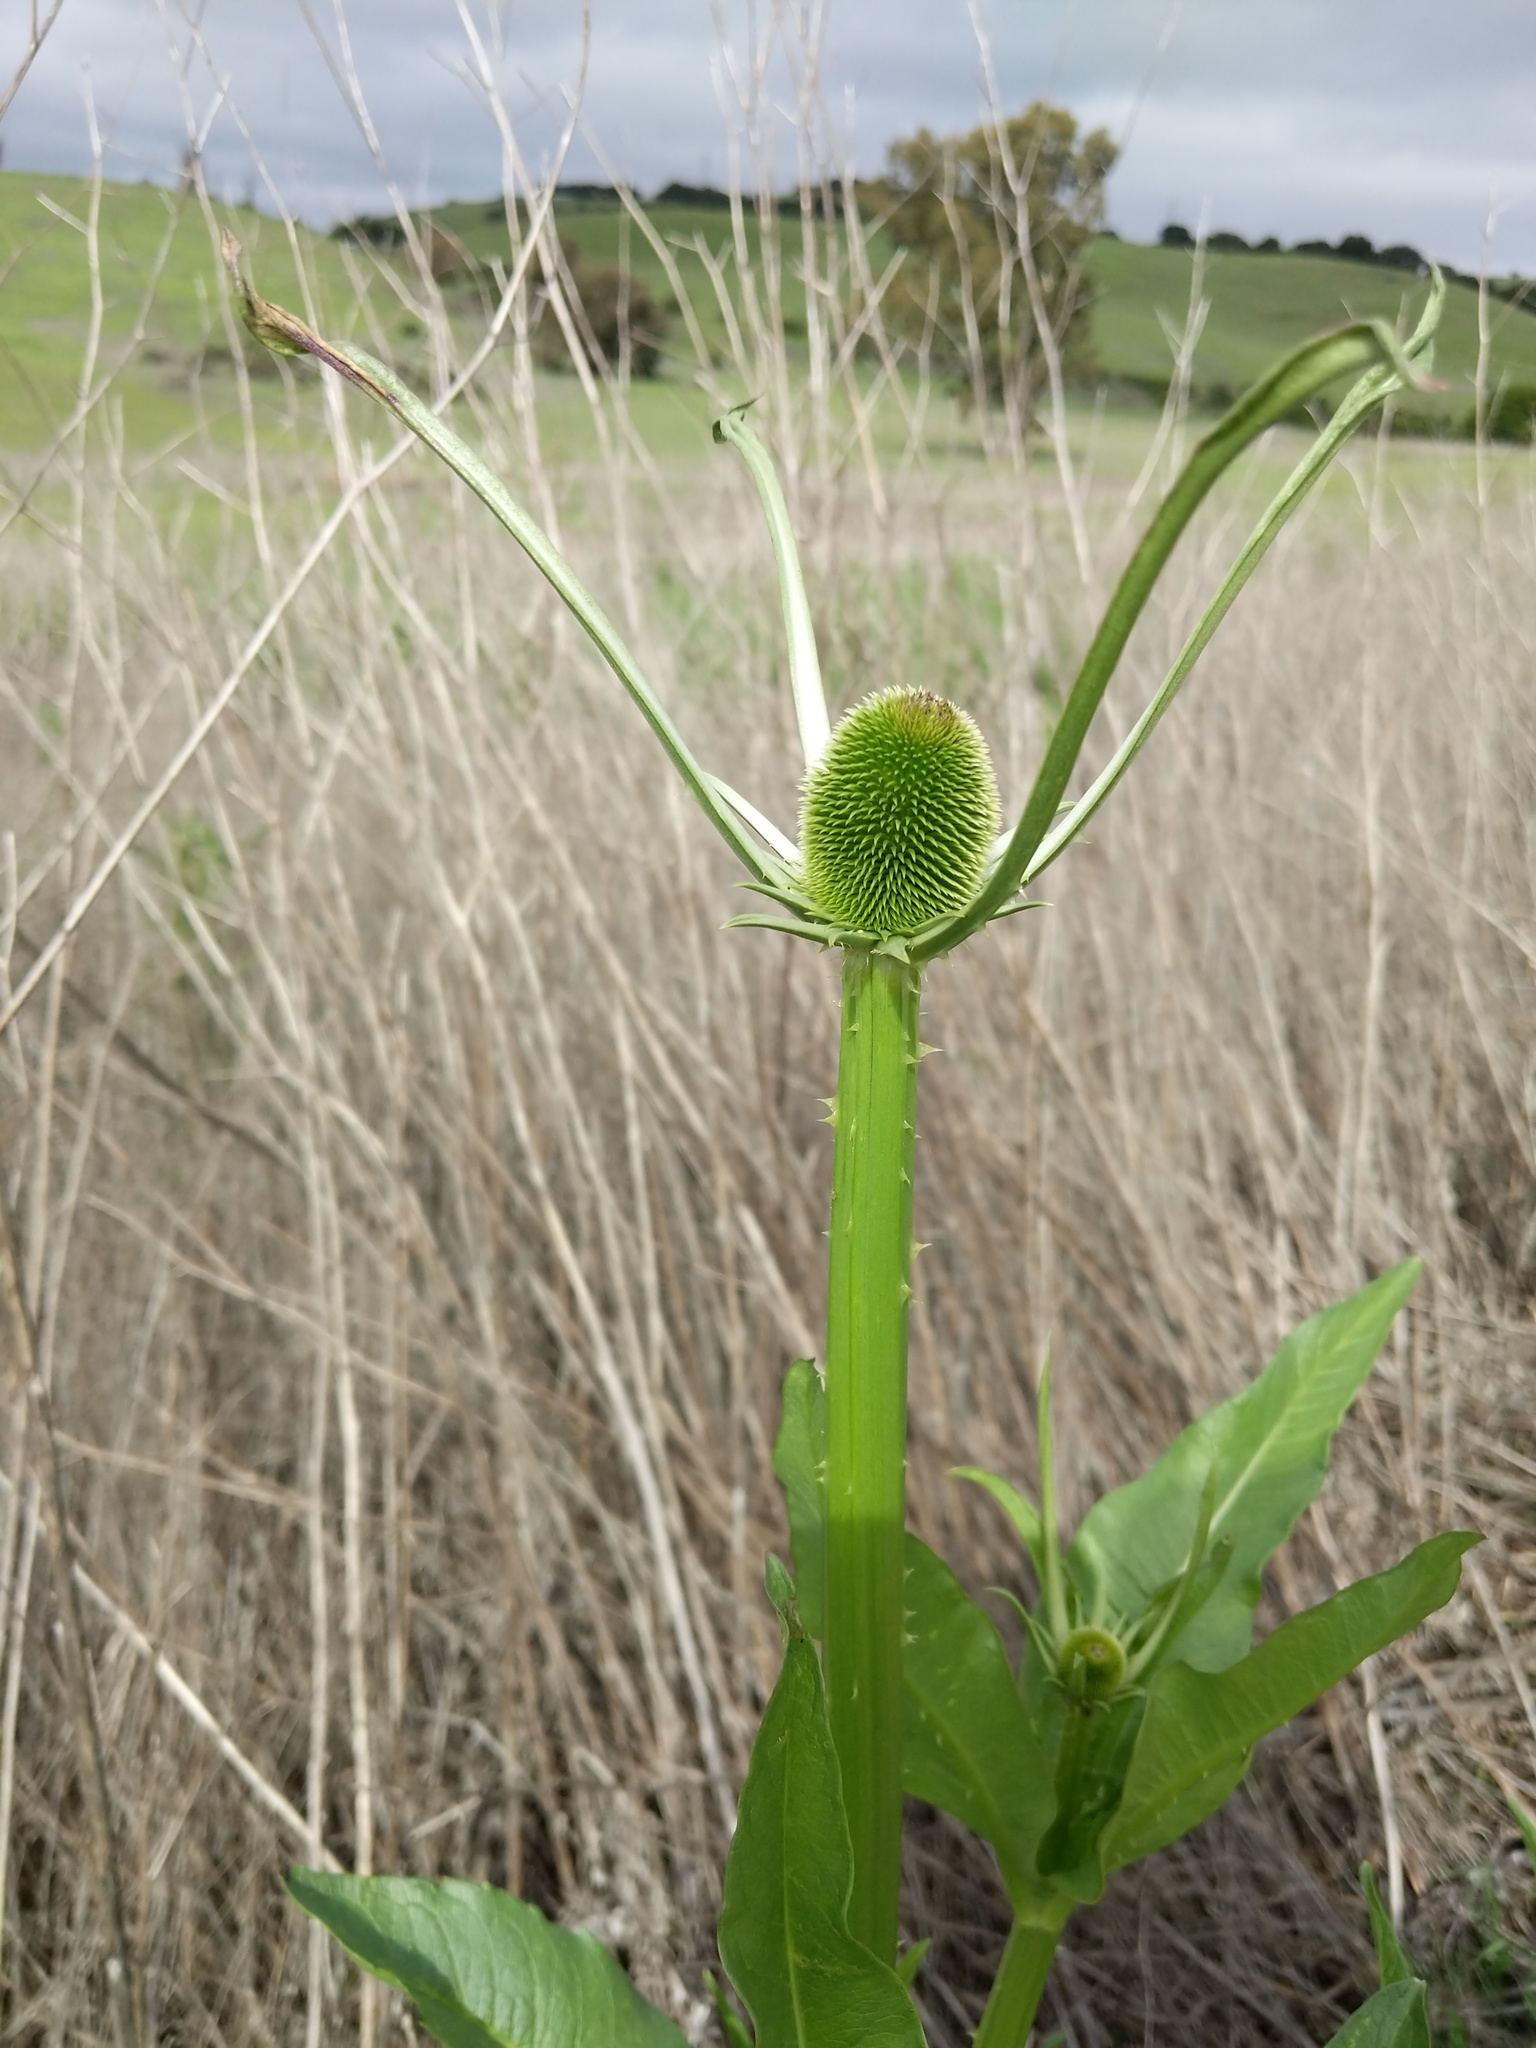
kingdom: Plantae
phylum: Tracheophyta
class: Magnoliopsida
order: Dipsacales
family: Caprifoliaceae
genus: Dipsacus
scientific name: Dipsacus sativus
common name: Fuller's teasel
